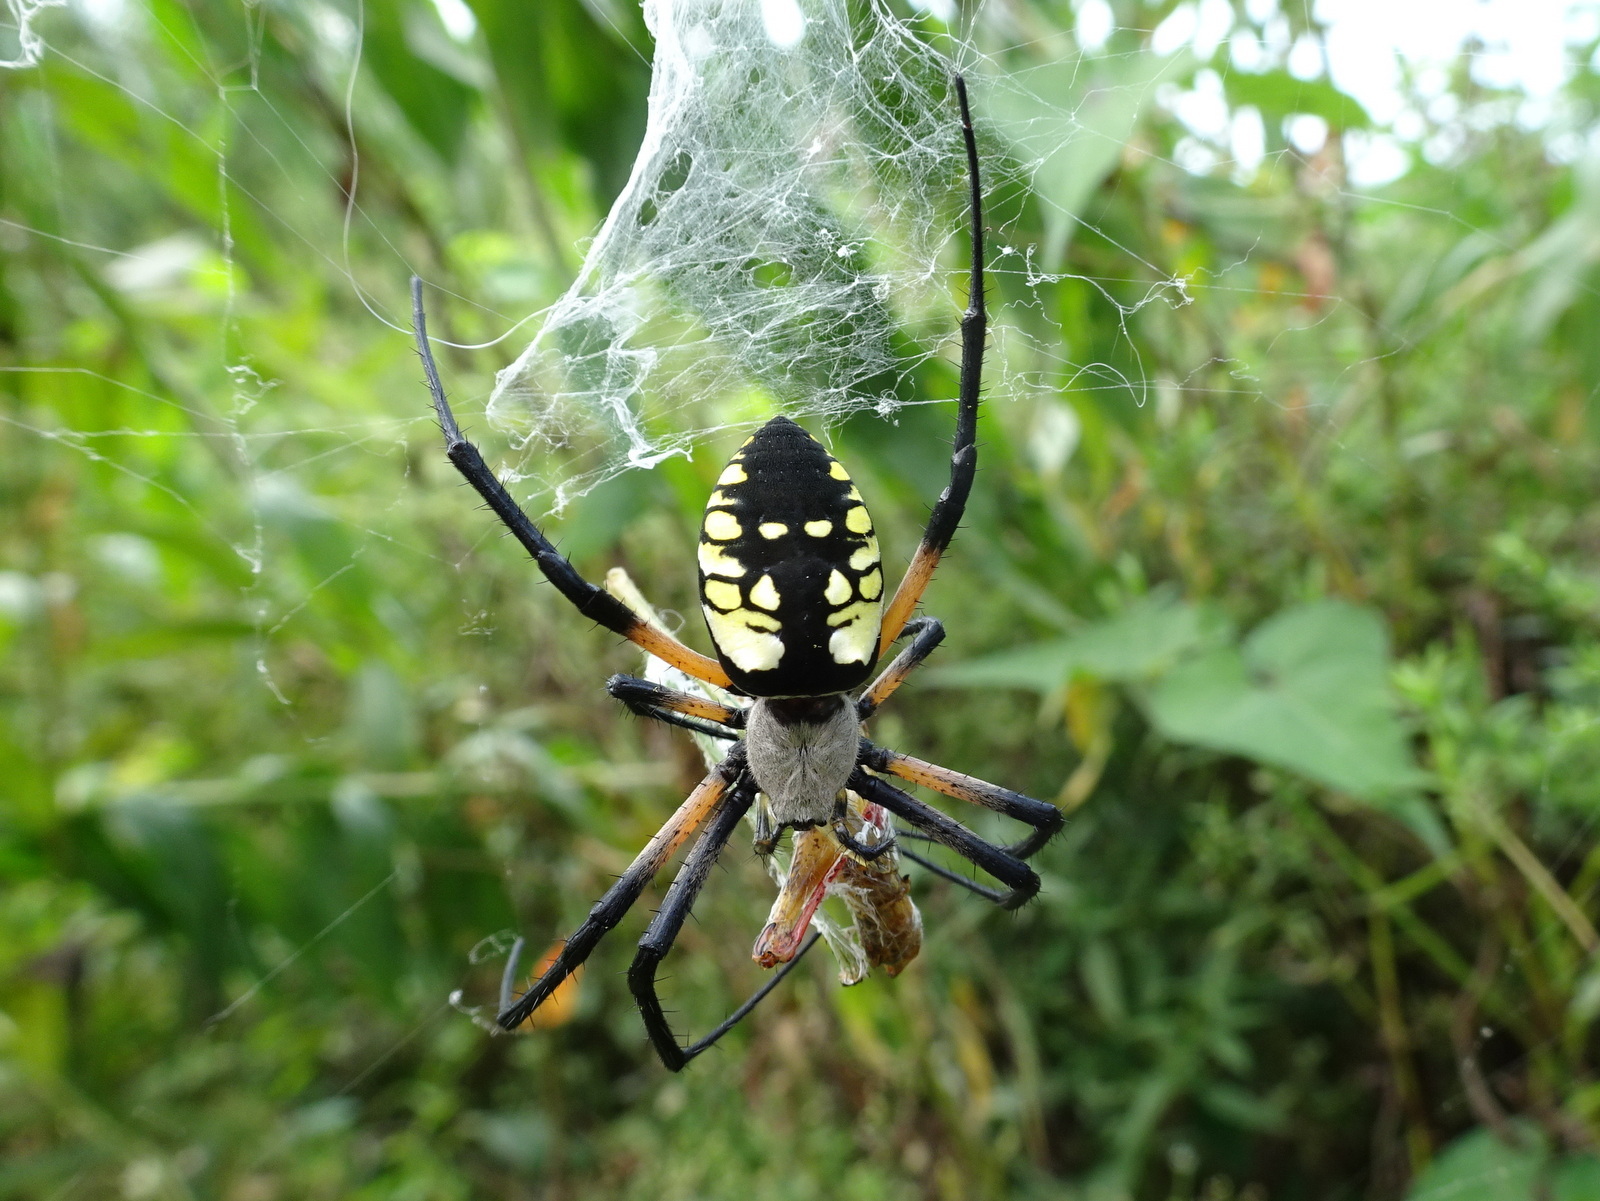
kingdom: Animalia
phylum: Arthropoda
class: Arachnida
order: Araneae
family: Araneidae
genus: Argiope
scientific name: Argiope aurantia
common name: Orb weavers
